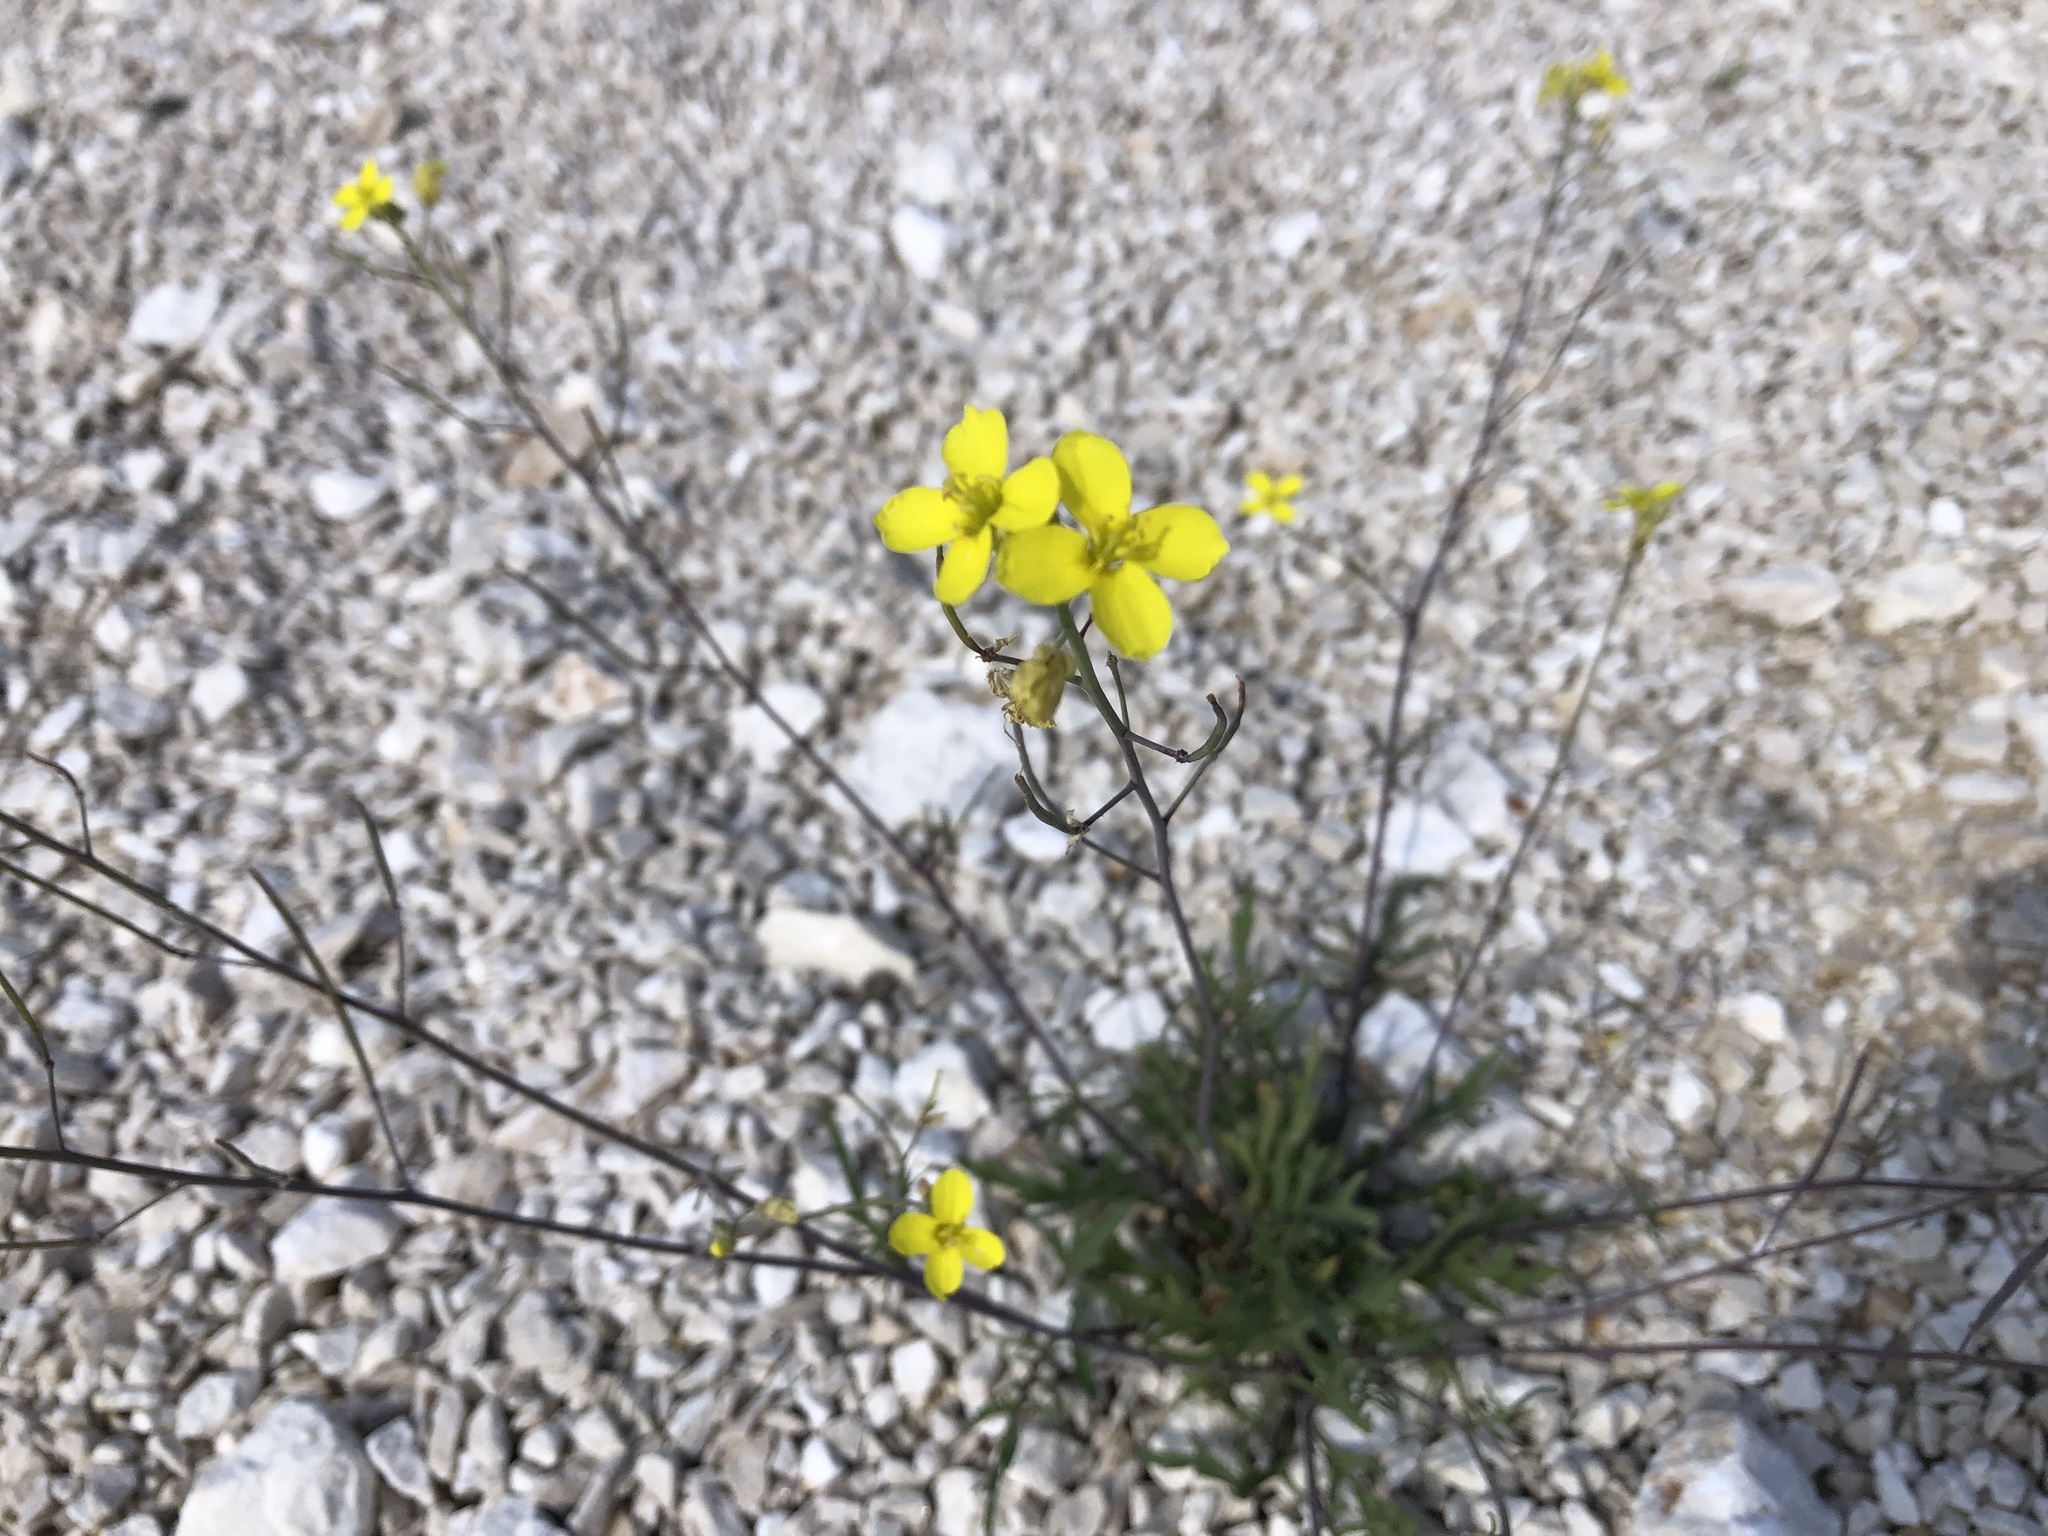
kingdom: Plantae
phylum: Tracheophyta
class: Magnoliopsida
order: Brassicales
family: Brassicaceae
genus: Diplotaxis
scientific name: Diplotaxis tenuifolia
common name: Perennial wall-rocket
